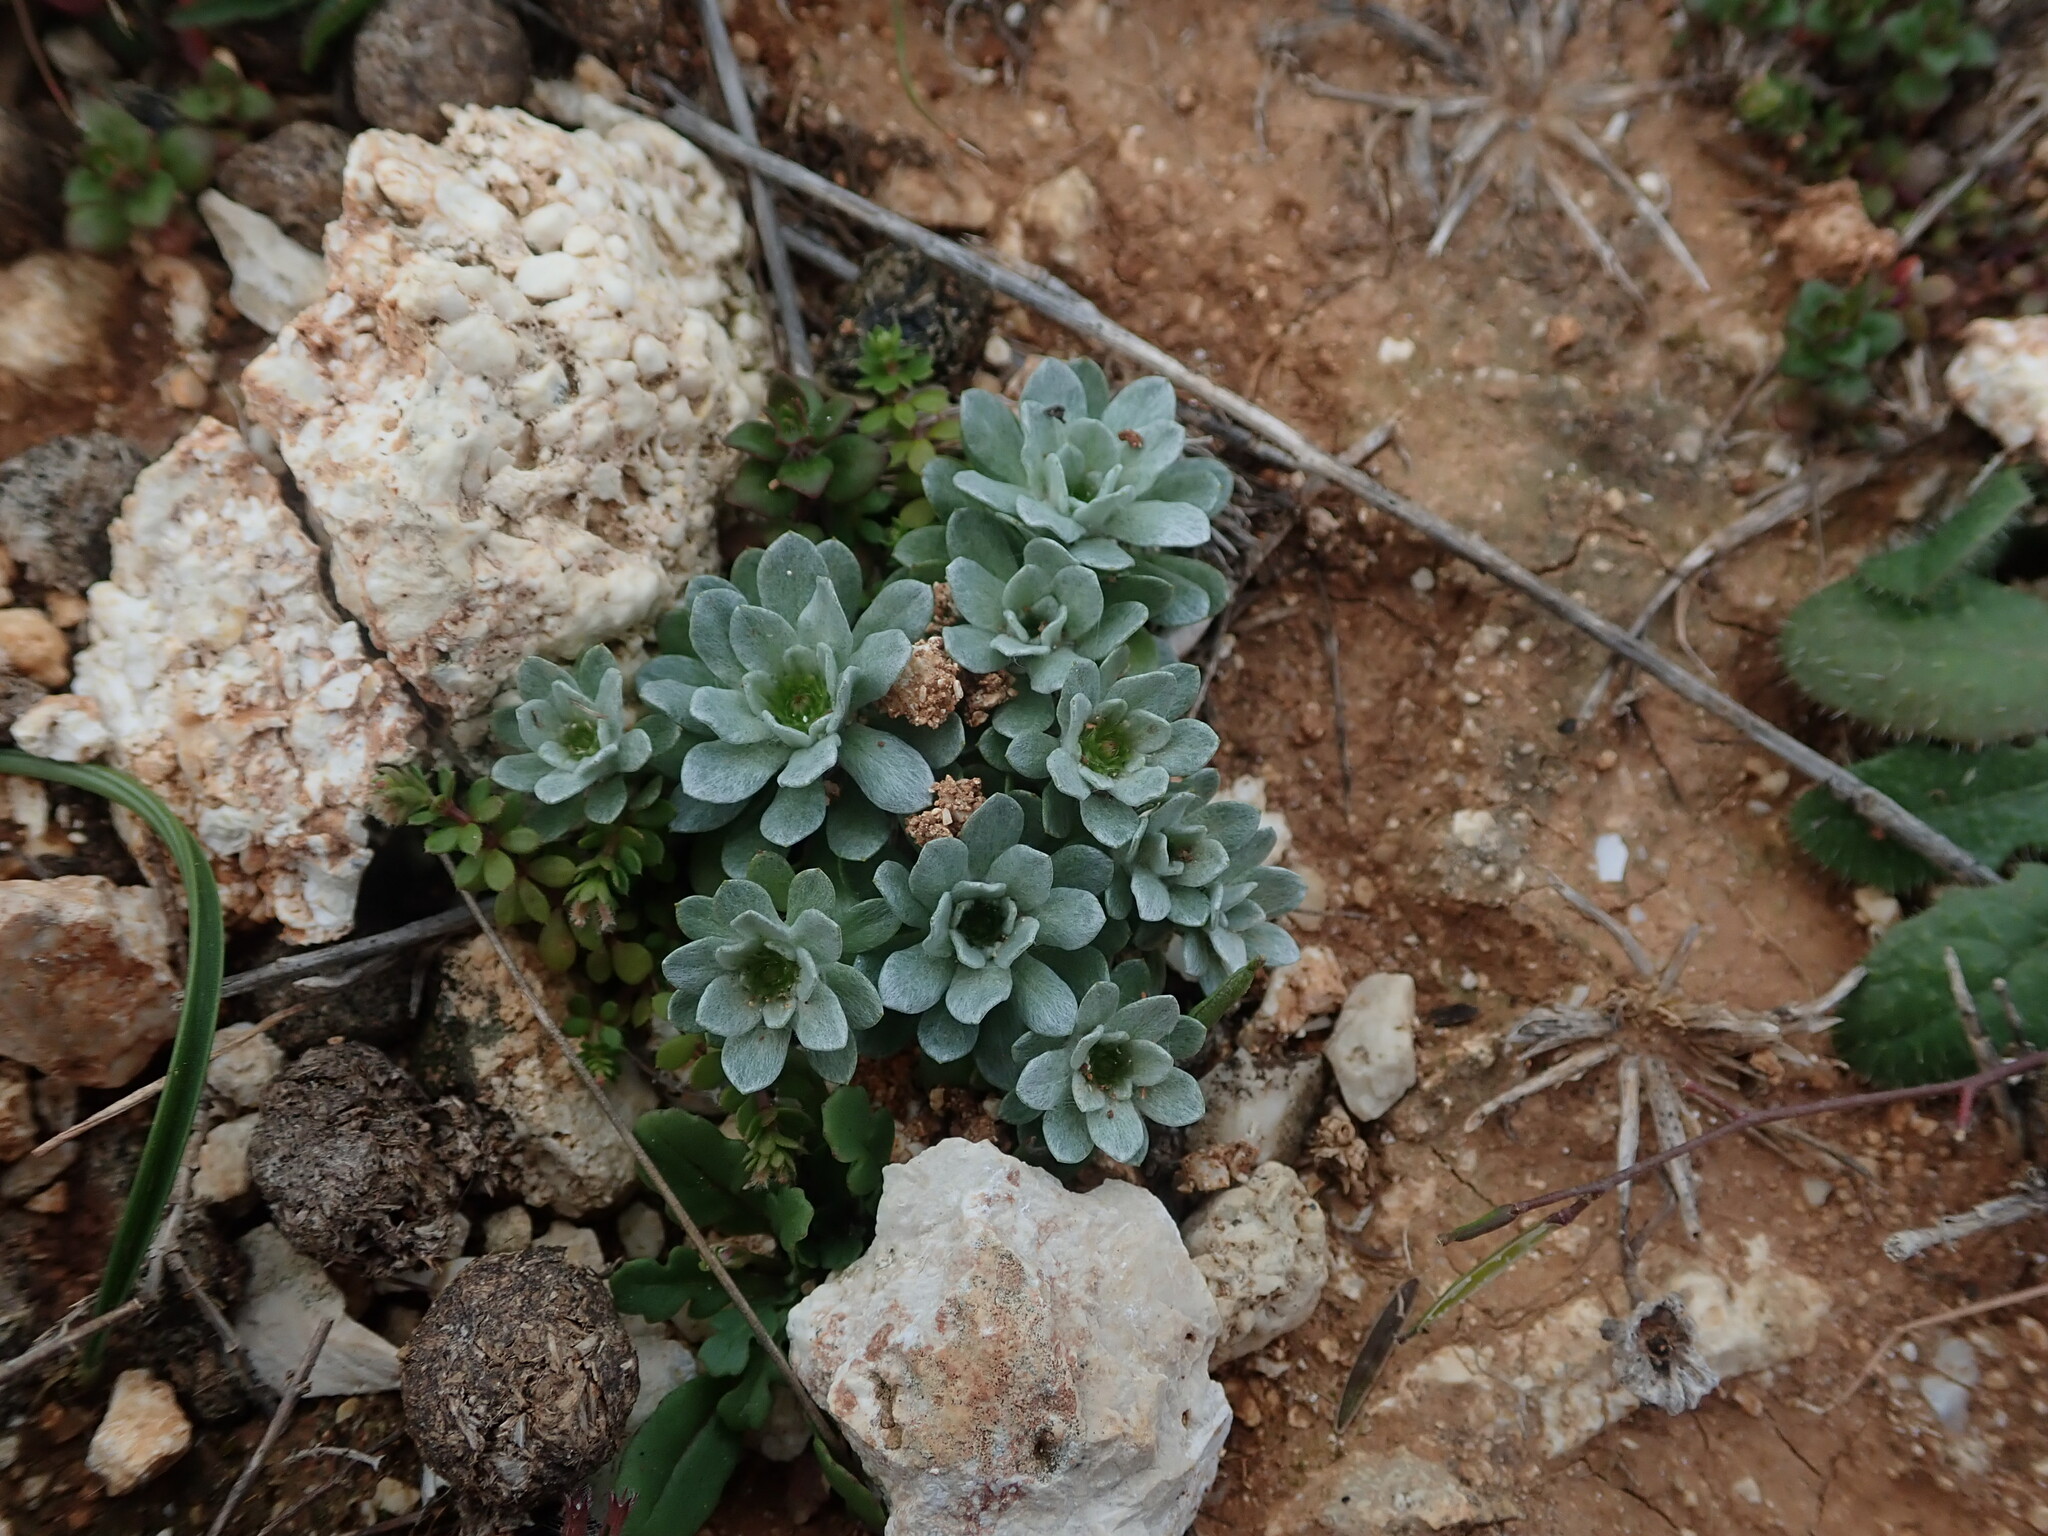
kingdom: Plantae
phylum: Tracheophyta
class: Magnoliopsida
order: Asterales
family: Asteraceae
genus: Filago
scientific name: Filago pygmaea
